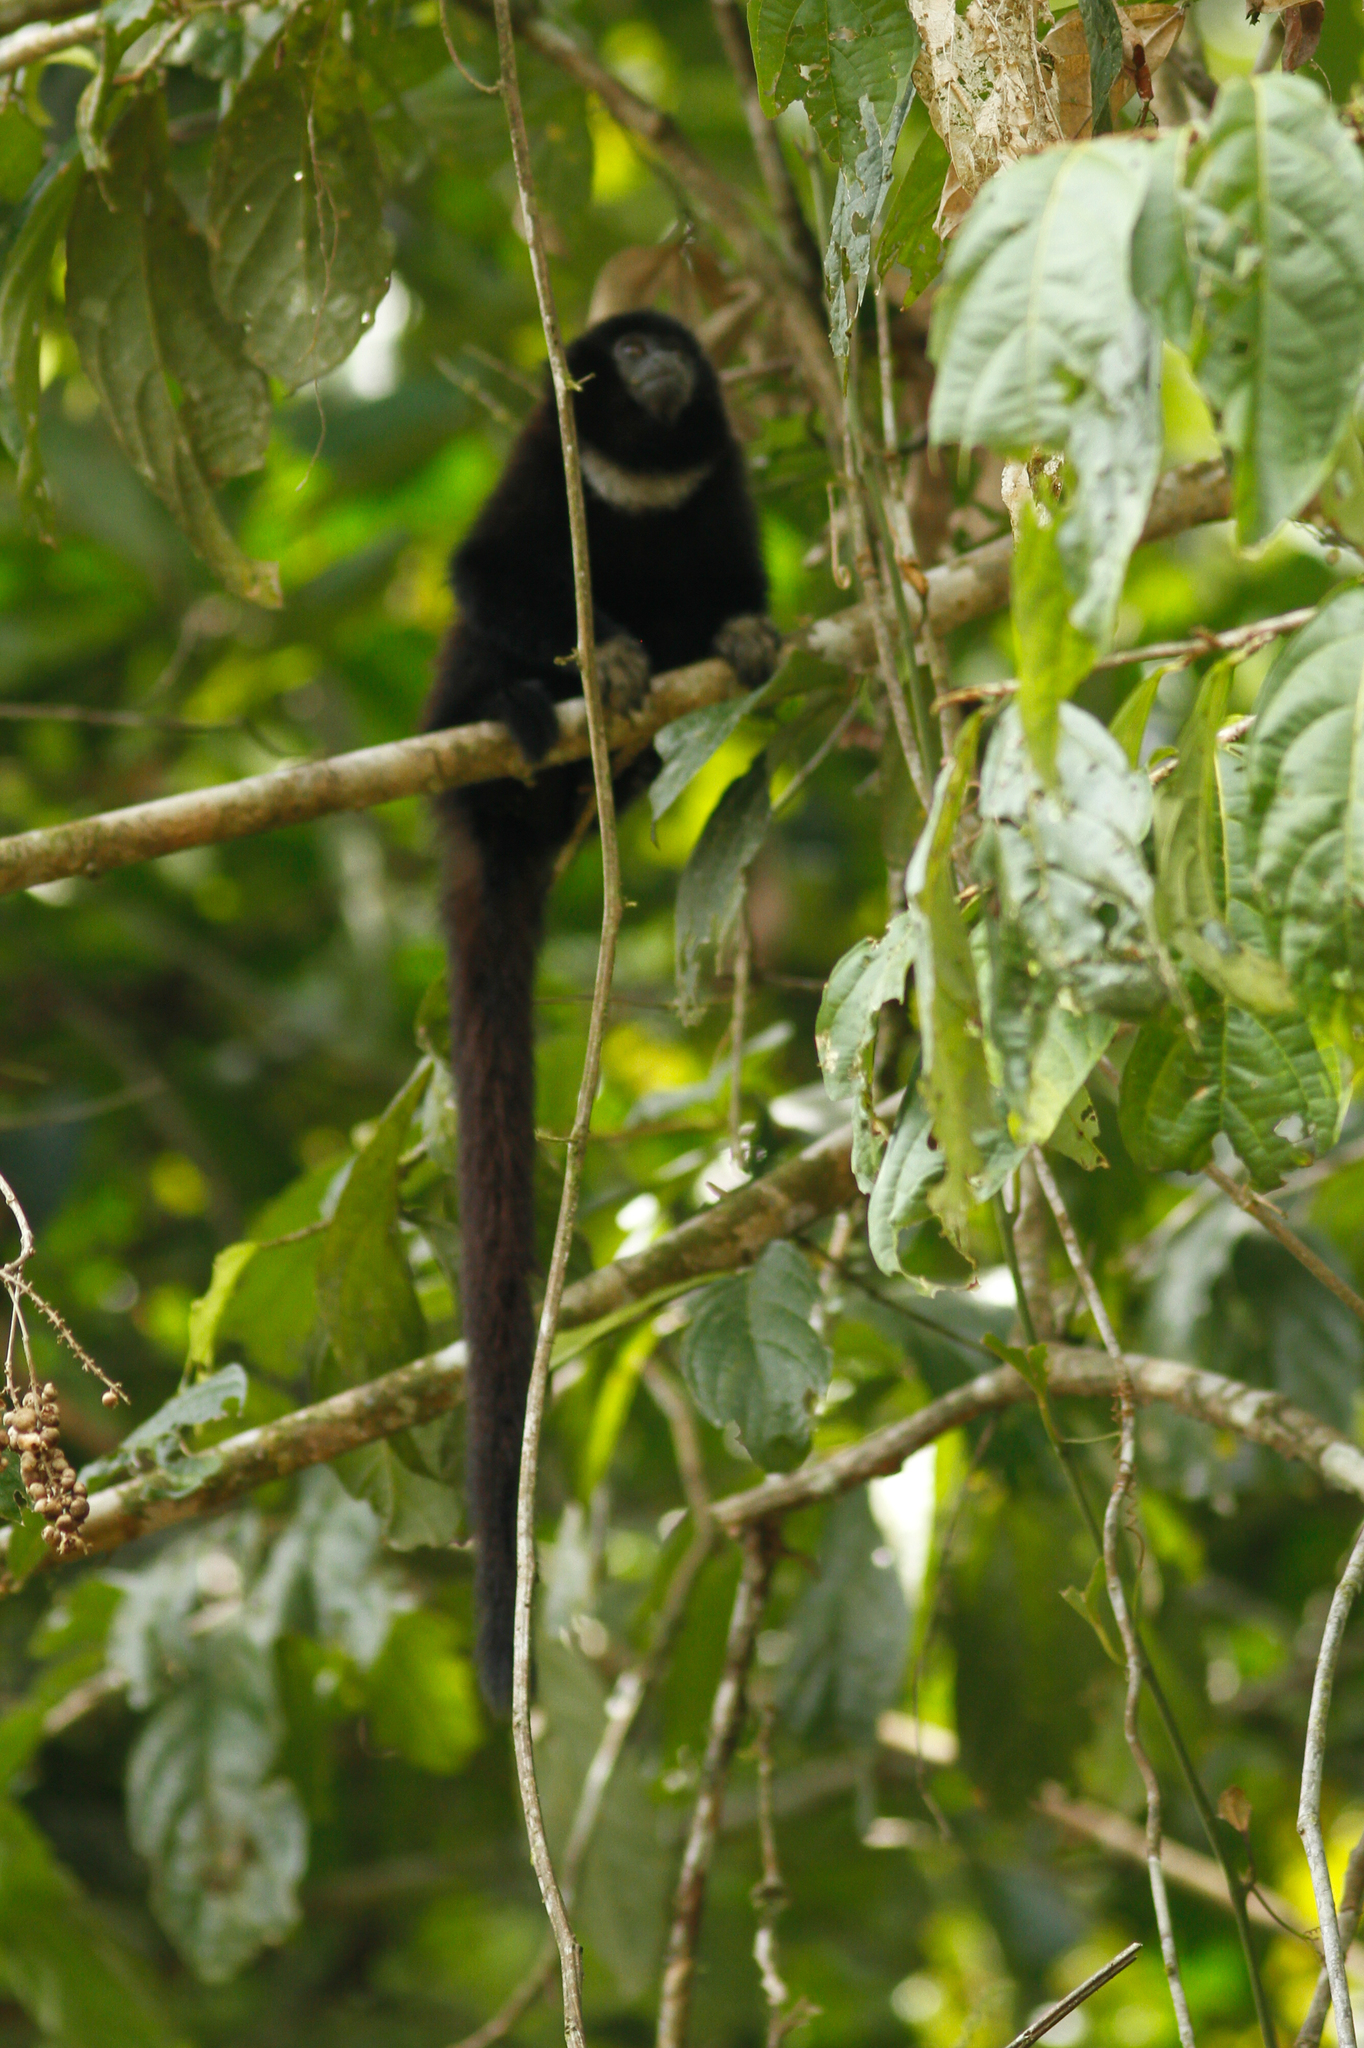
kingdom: Animalia
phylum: Chordata
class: Mammalia
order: Primates
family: Pitheciidae
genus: Cheracebus
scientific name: Cheracebus lucifer
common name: Yellow-handed titi
